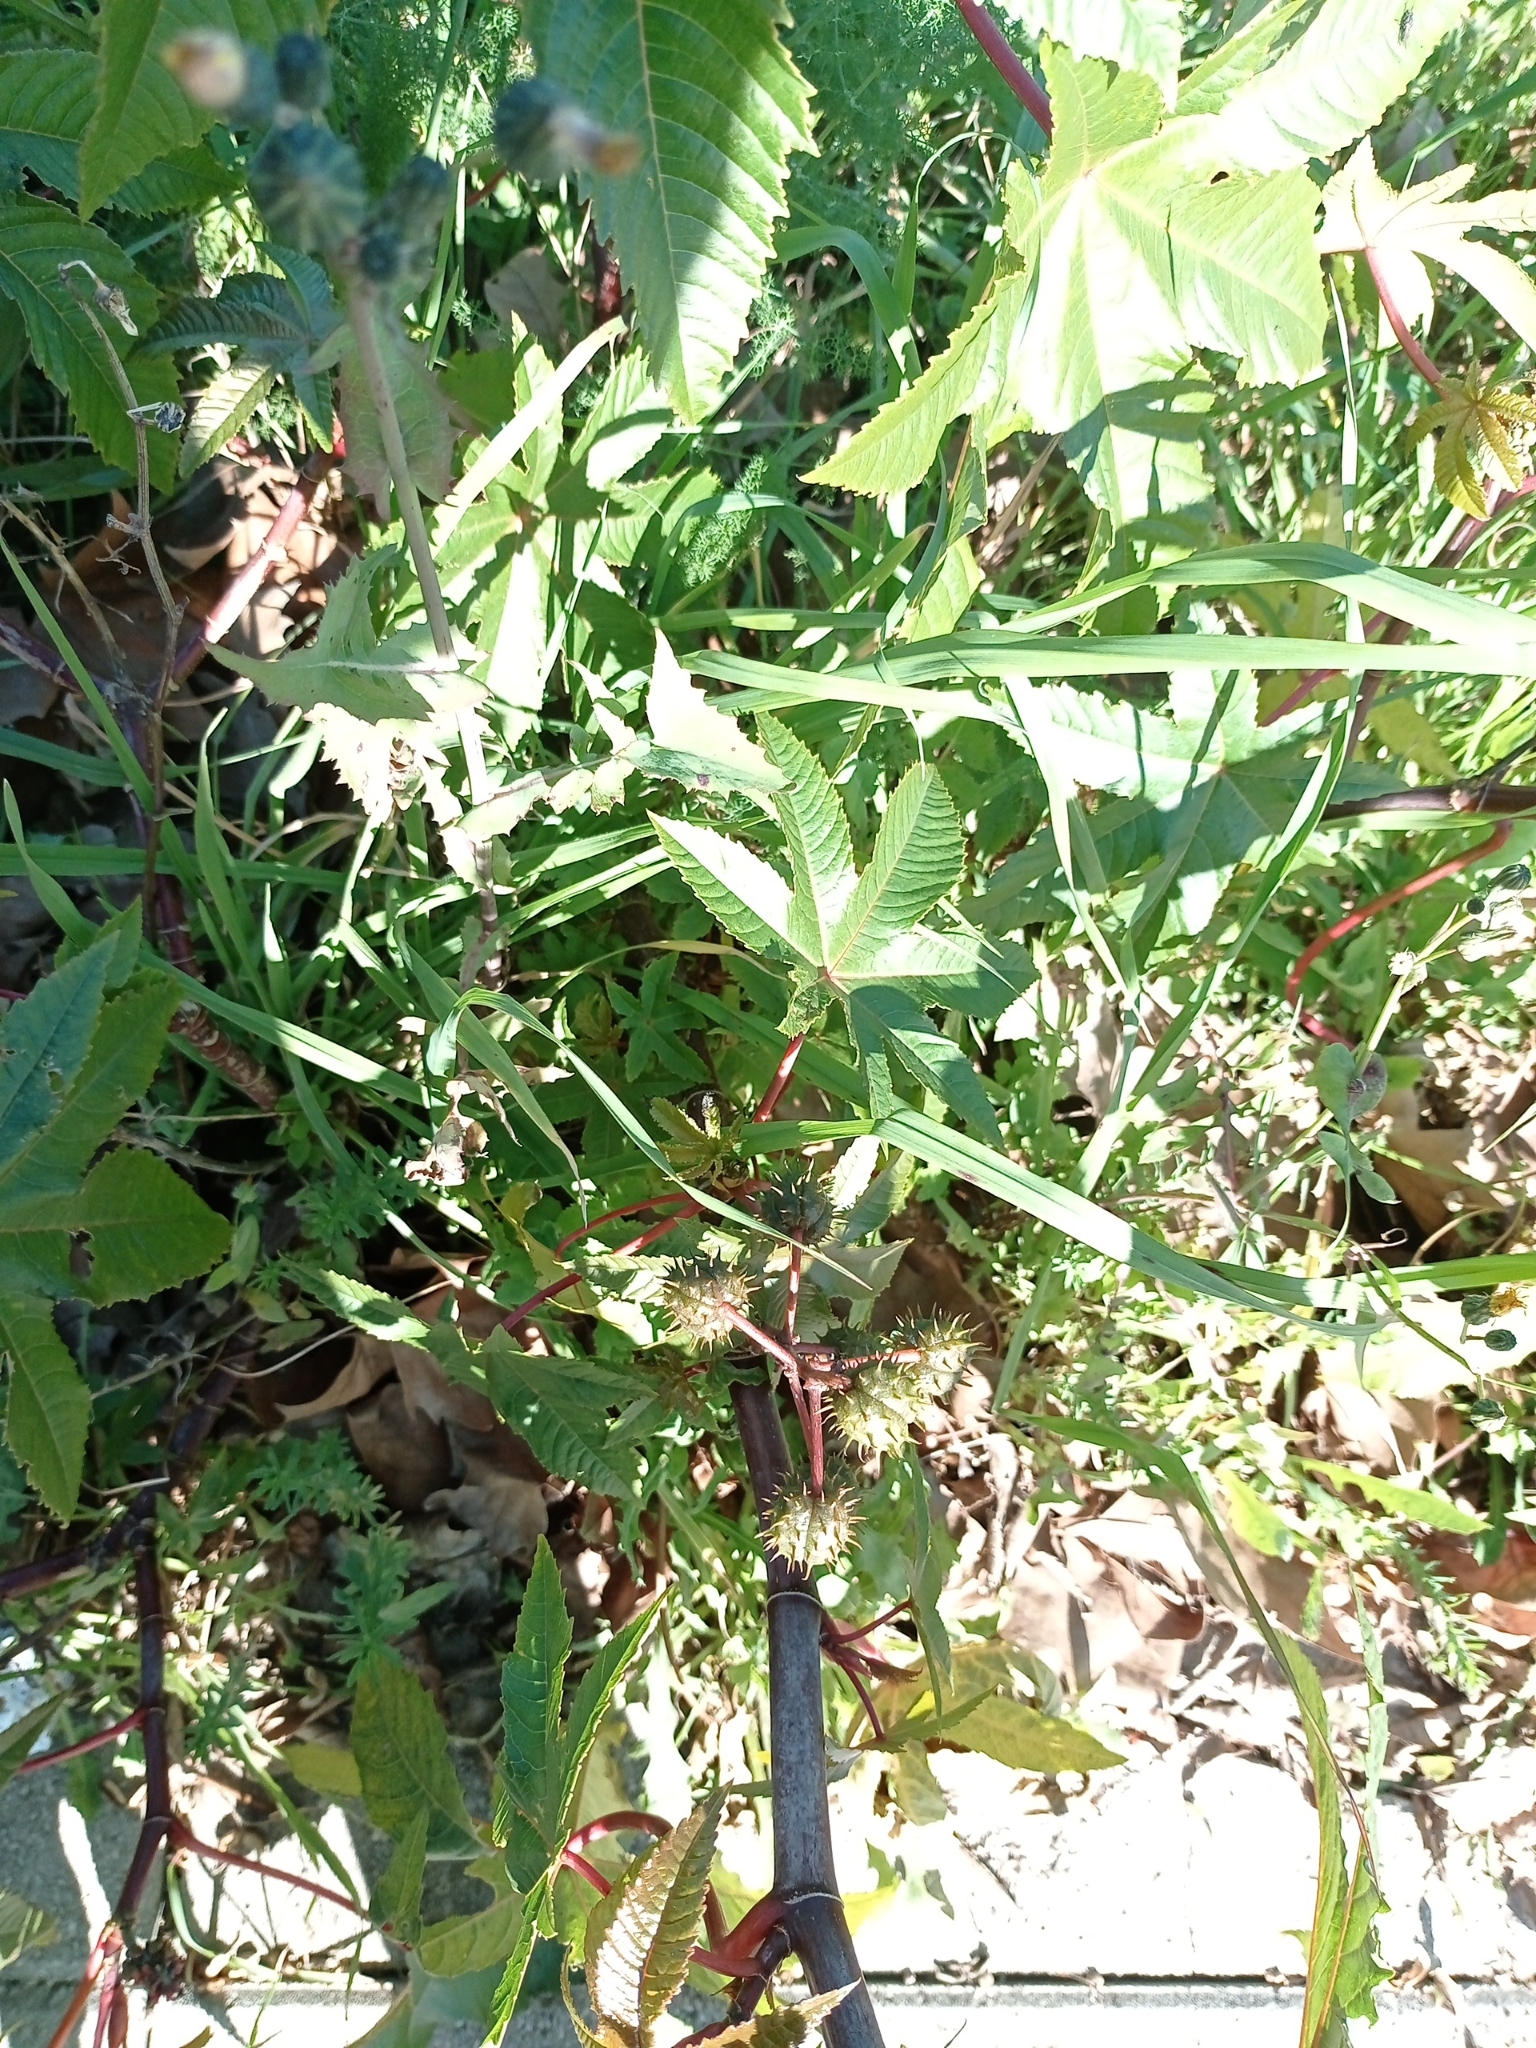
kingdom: Plantae
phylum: Tracheophyta
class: Magnoliopsida
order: Malpighiales
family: Euphorbiaceae
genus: Ricinus
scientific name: Ricinus communis
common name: Castor-oil-plant
